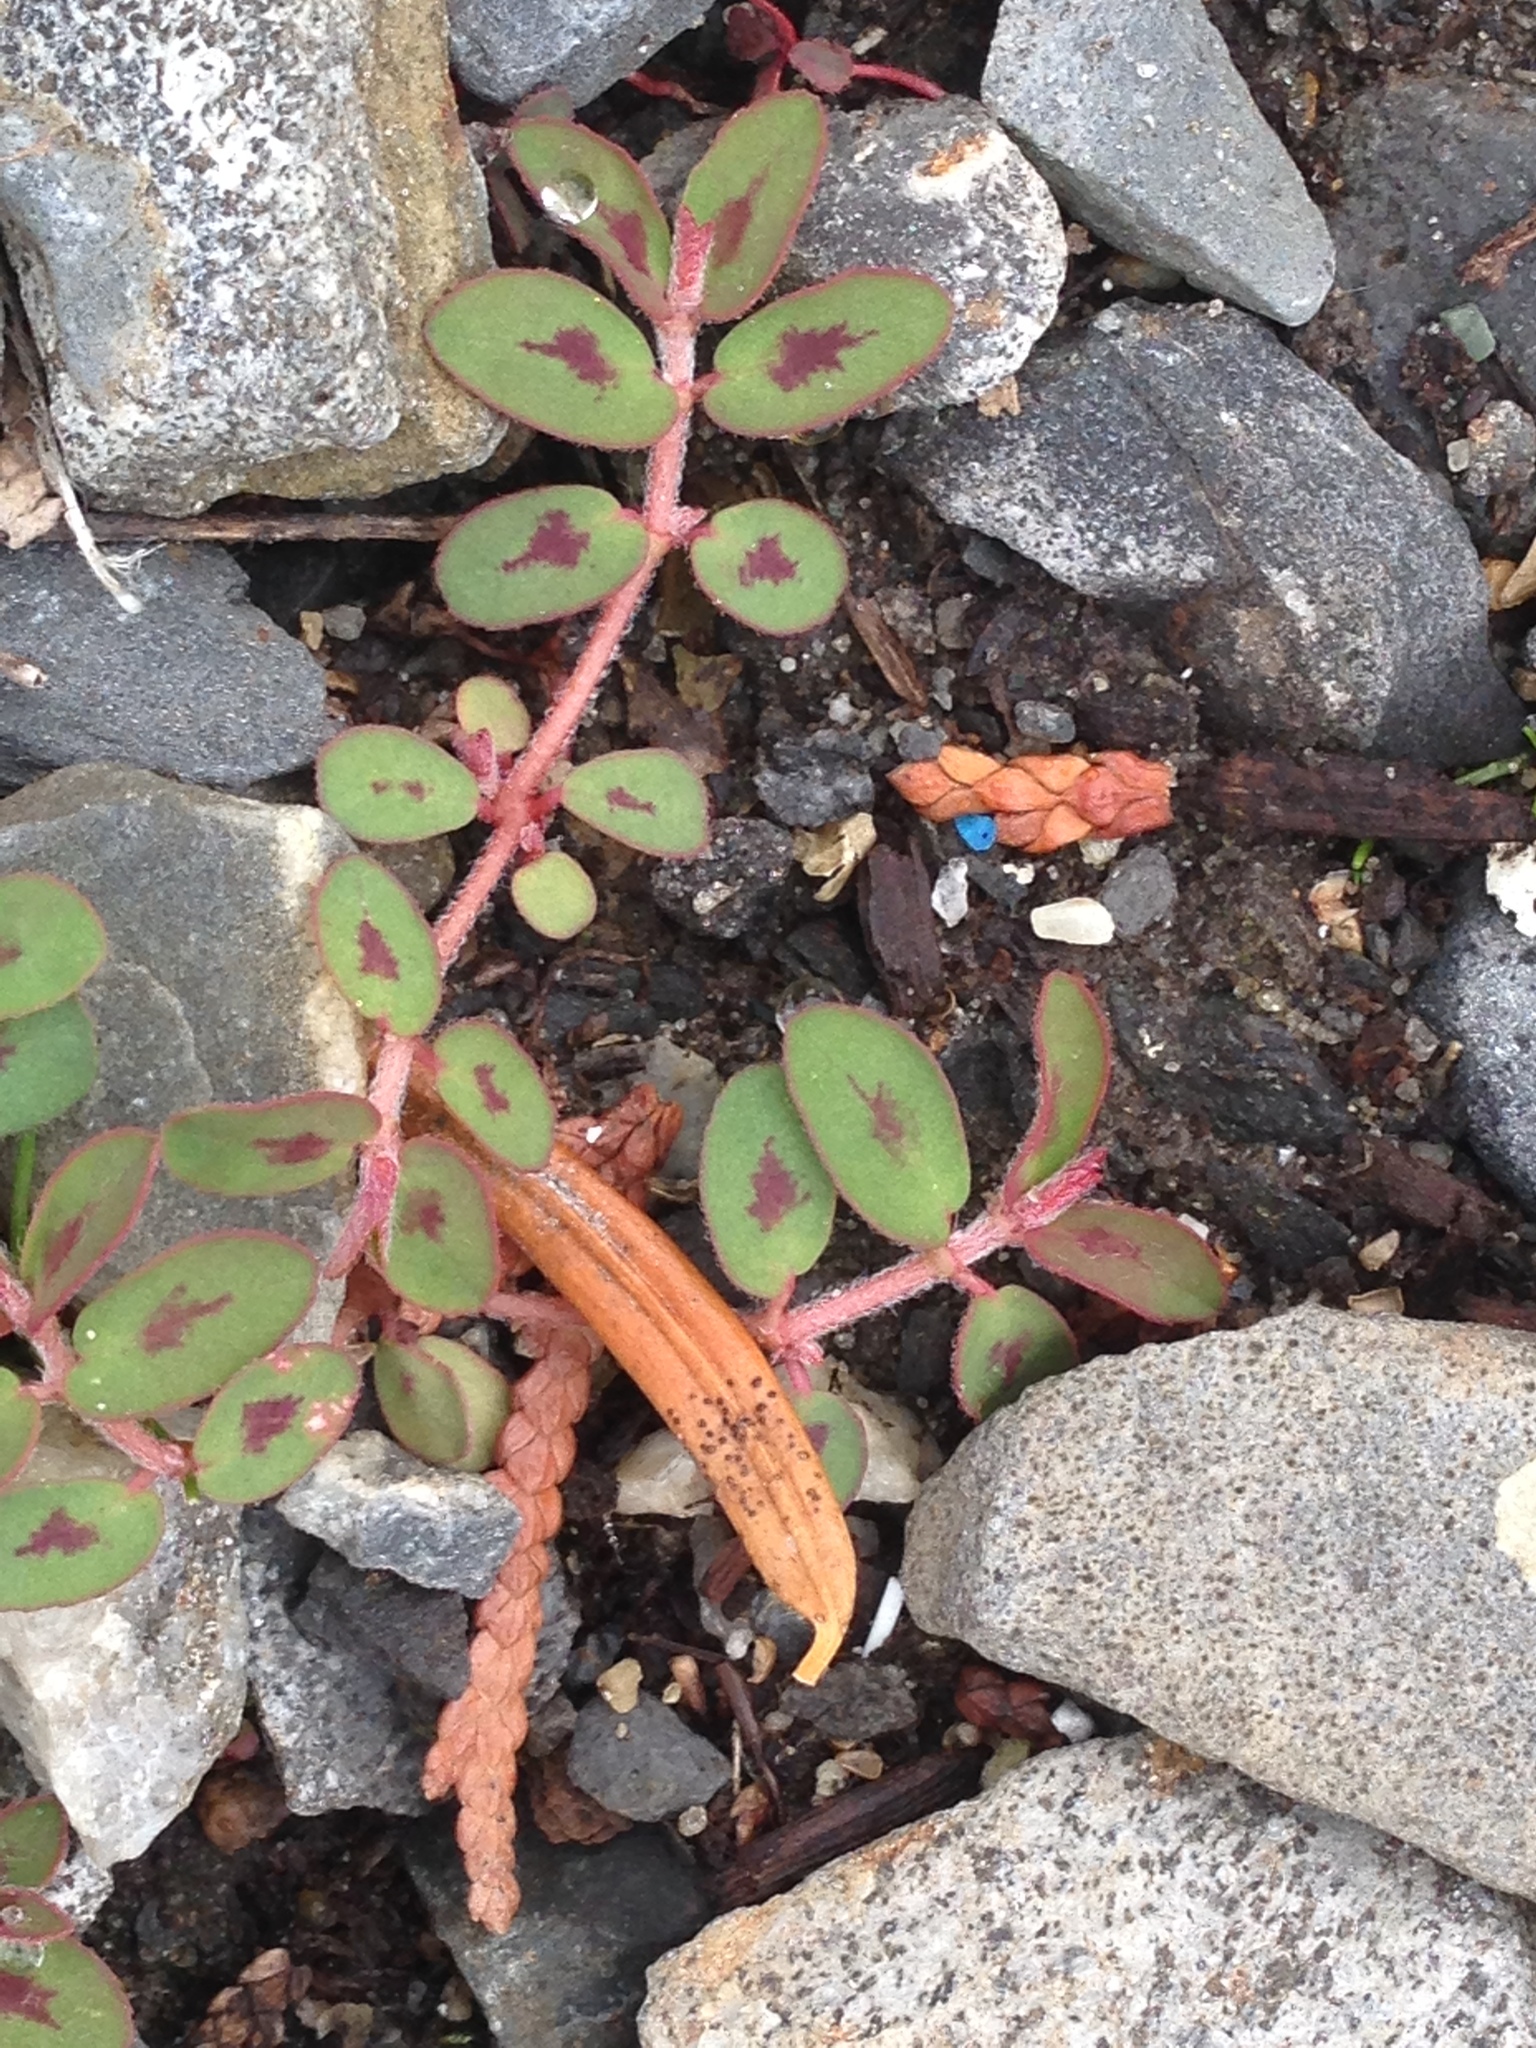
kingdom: Plantae
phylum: Tracheophyta
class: Magnoliopsida
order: Malpighiales
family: Euphorbiaceae
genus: Euphorbia
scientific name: Euphorbia maculata
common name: Spotted spurge
